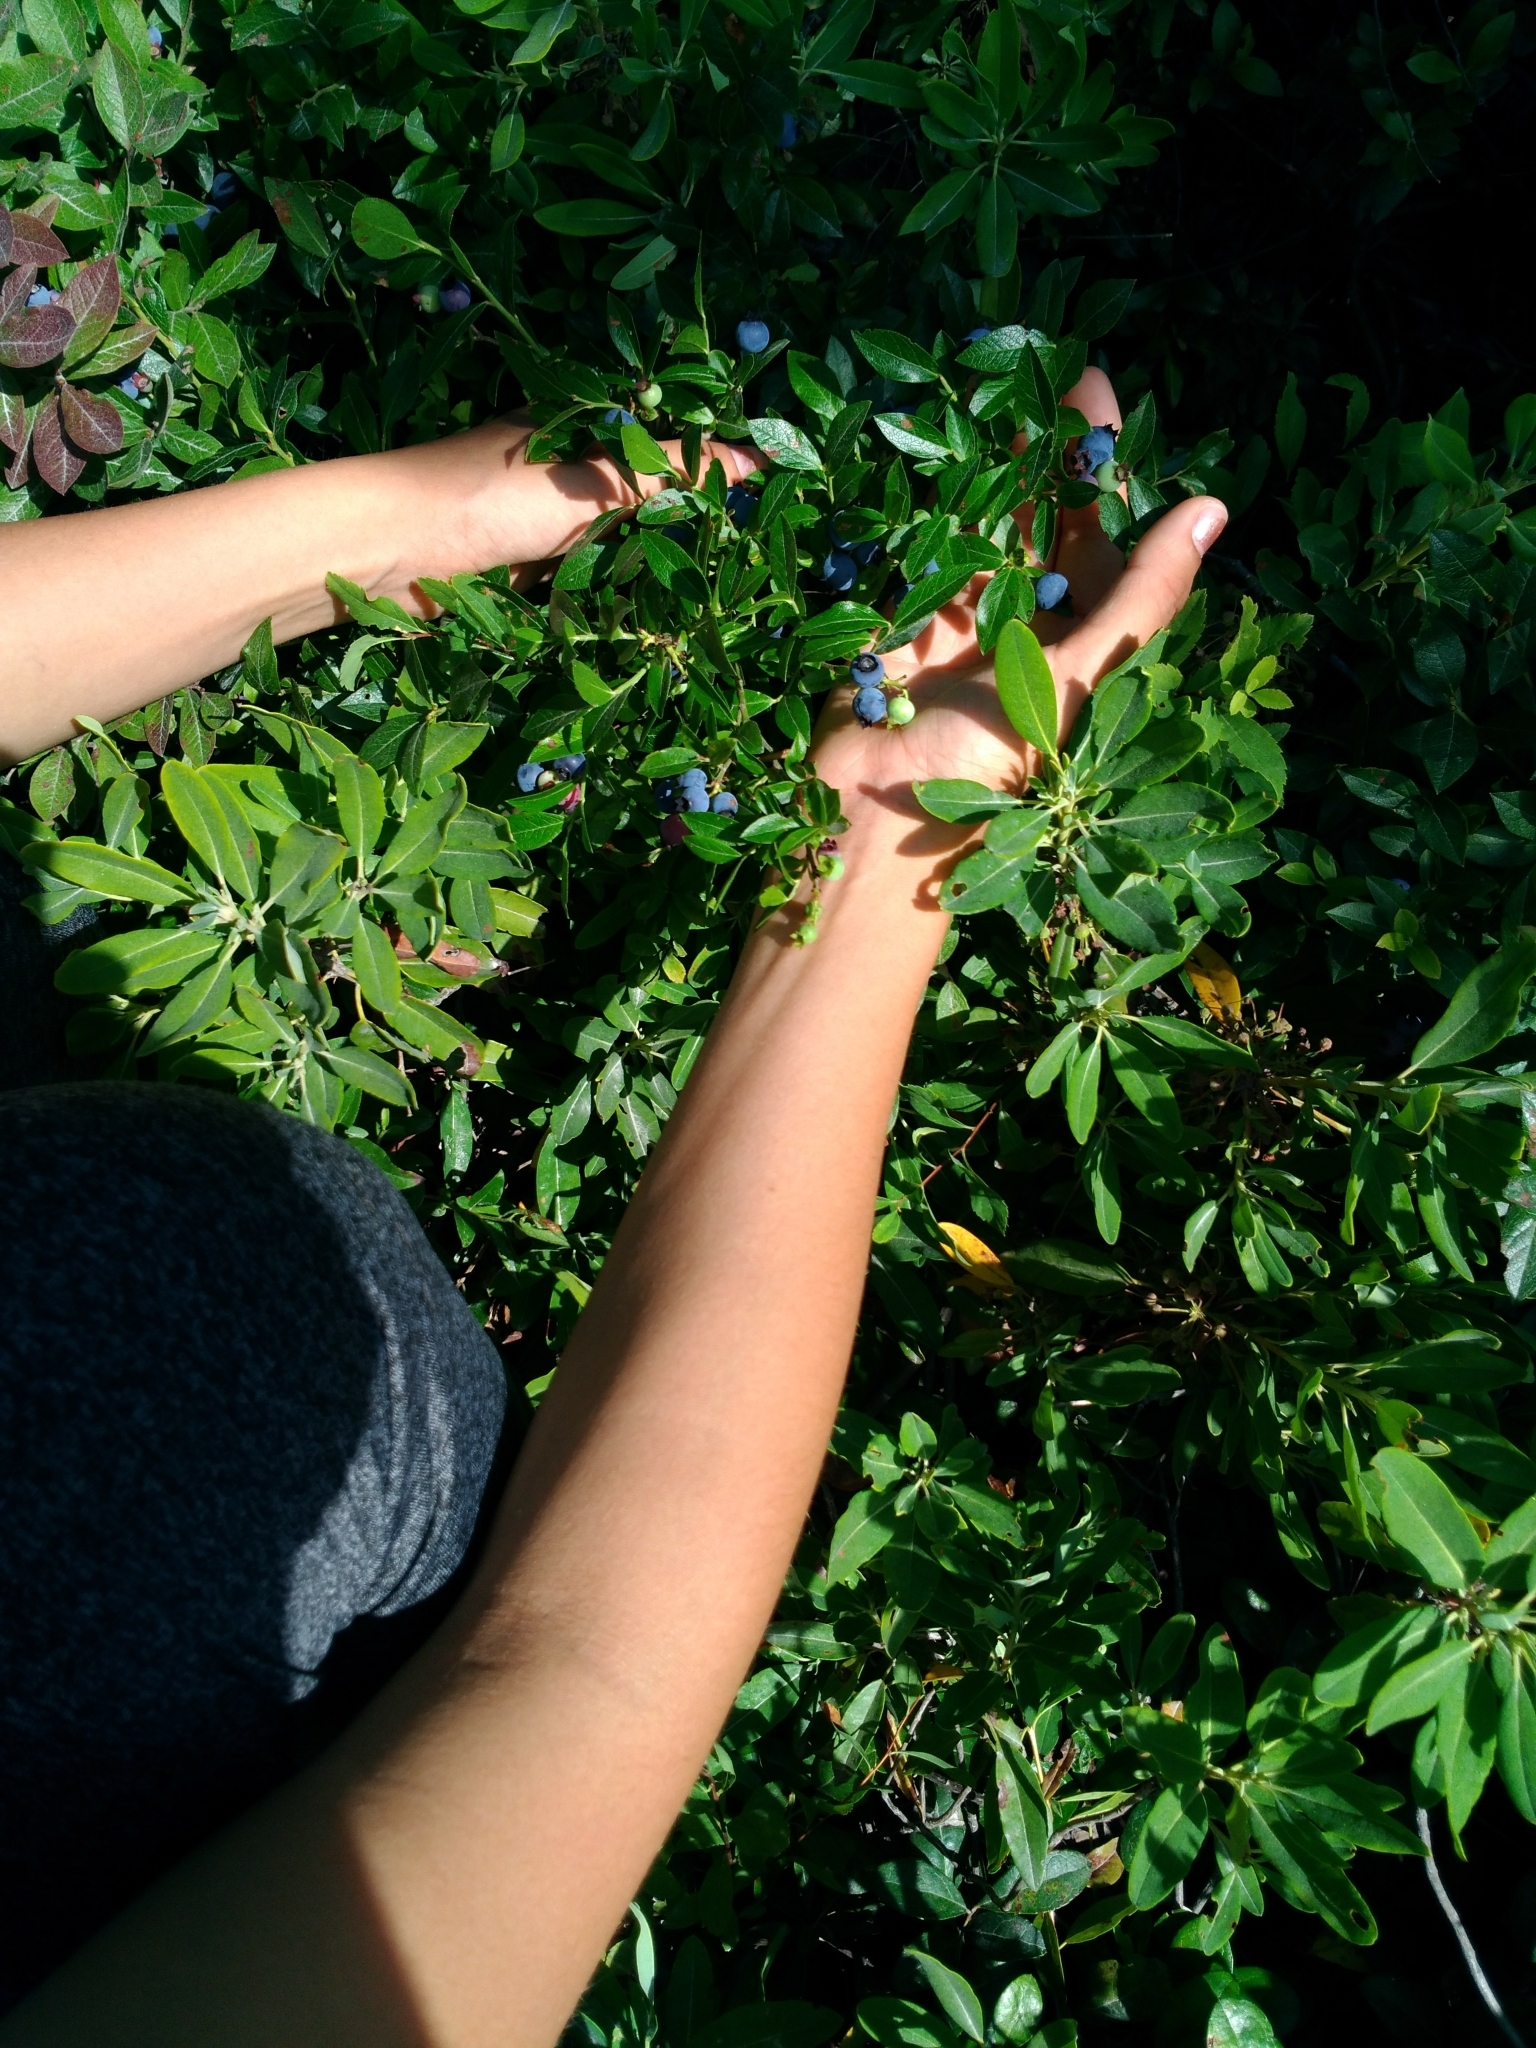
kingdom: Plantae
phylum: Tracheophyta
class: Magnoliopsida
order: Ericales
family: Ericaceae
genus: Vaccinium
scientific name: Vaccinium angustifolium
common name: Early lowbush blueberry
